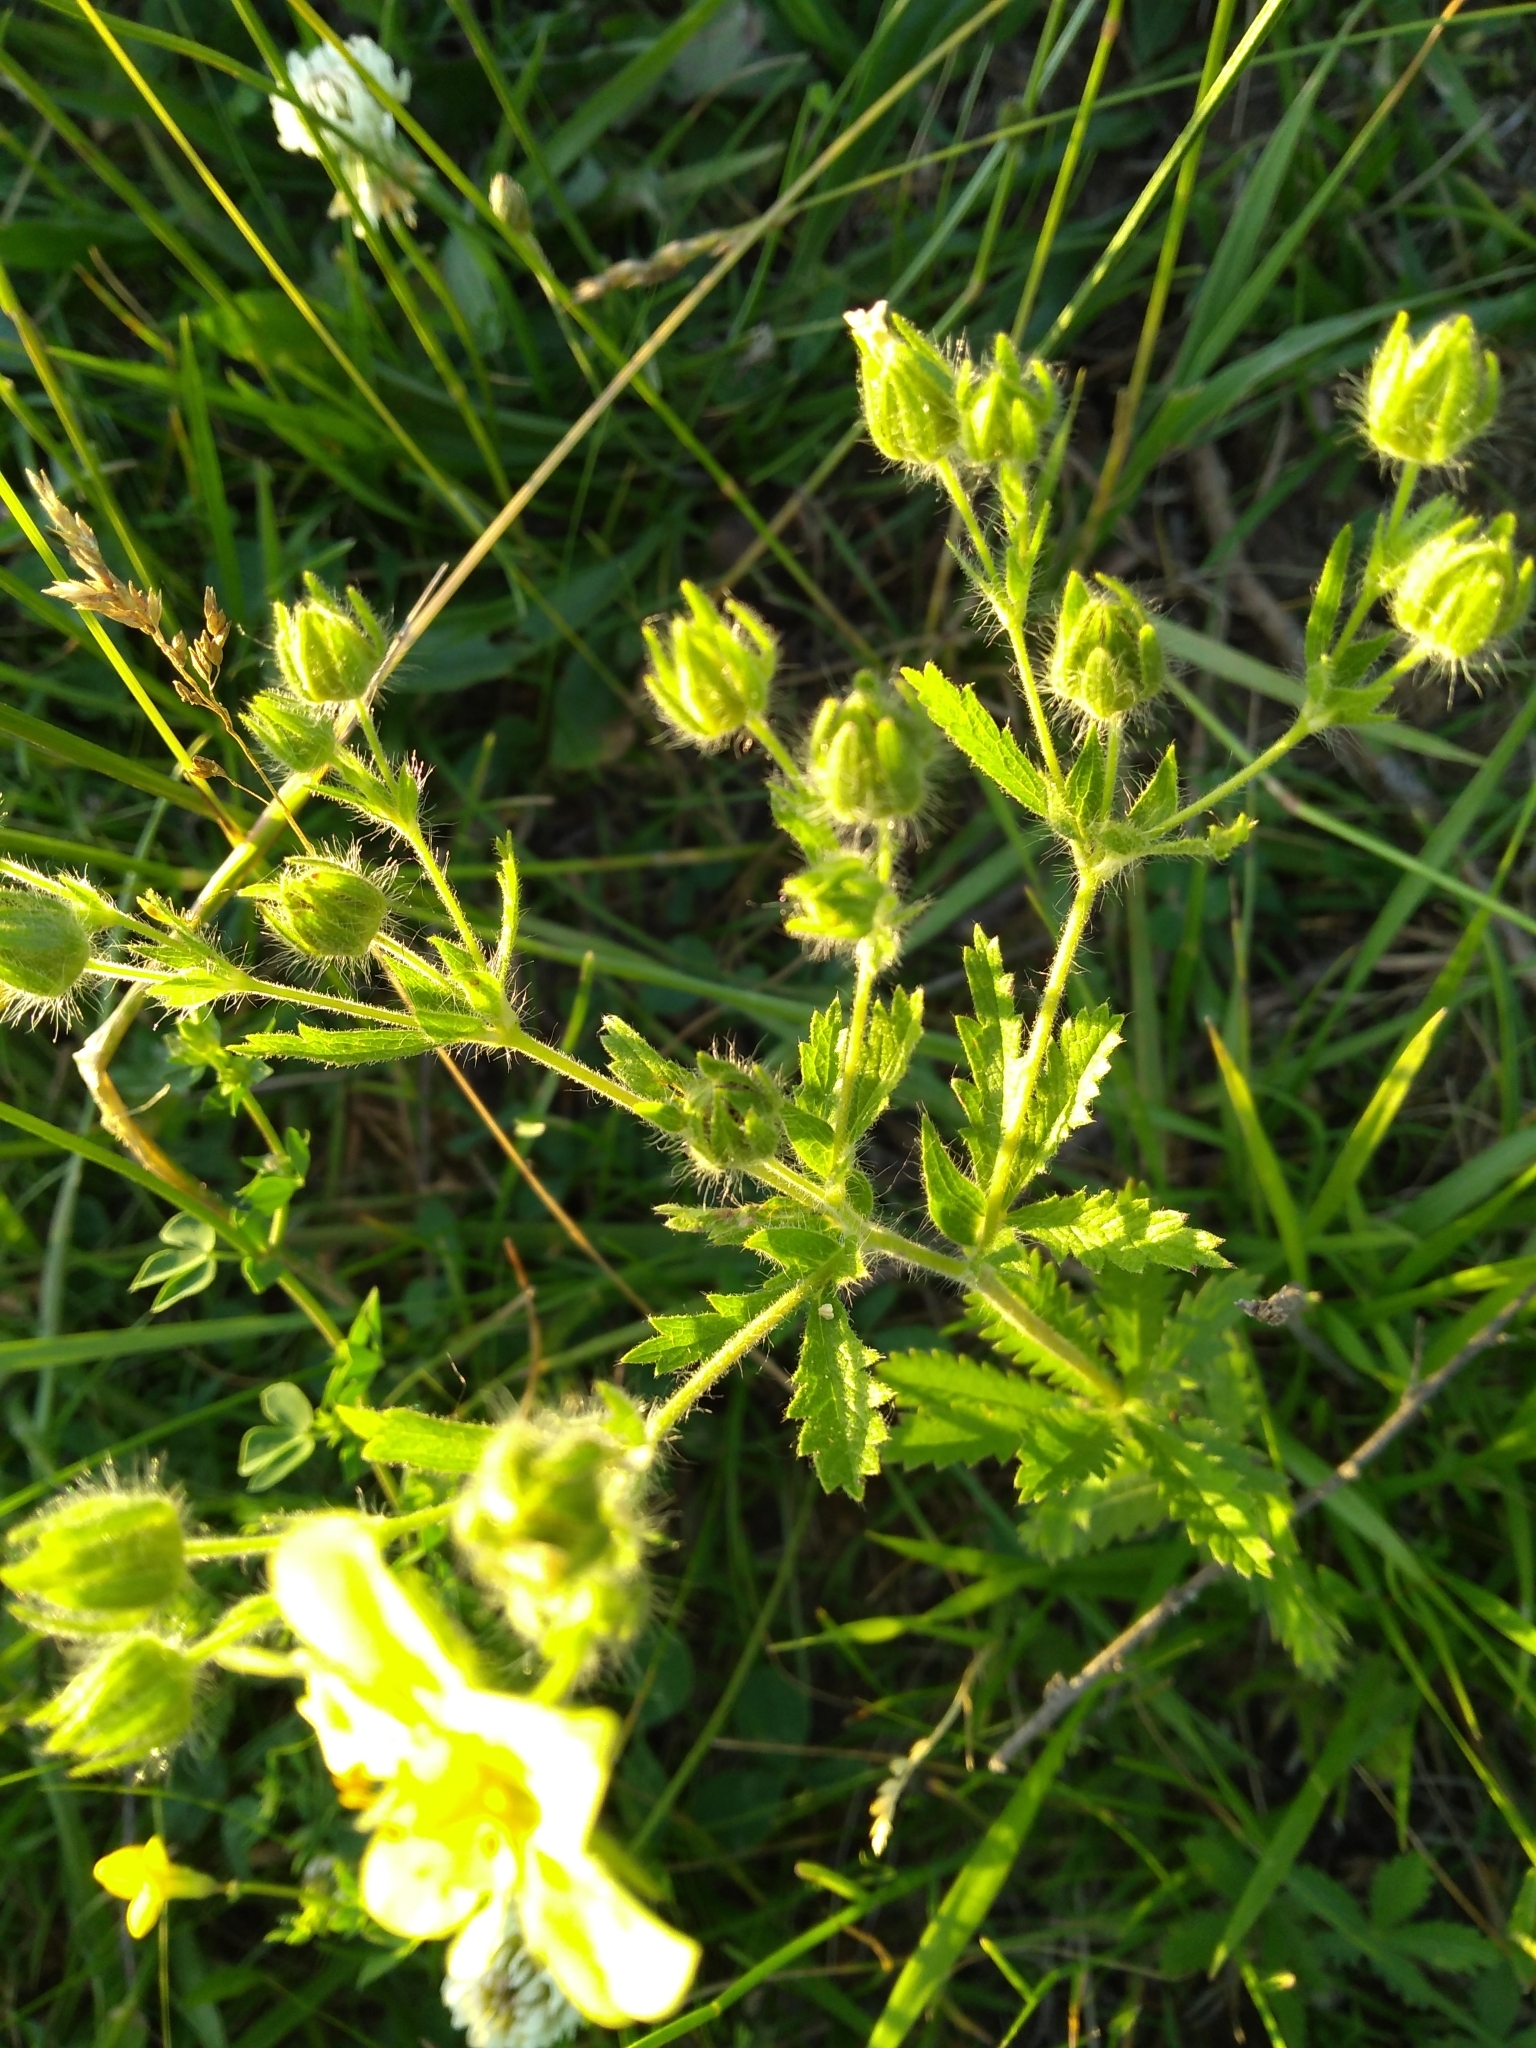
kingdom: Plantae
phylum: Tracheophyta
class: Magnoliopsida
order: Rosales
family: Rosaceae
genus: Potentilla
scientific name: Potentilla recta
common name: Sulphur cinquefoil
